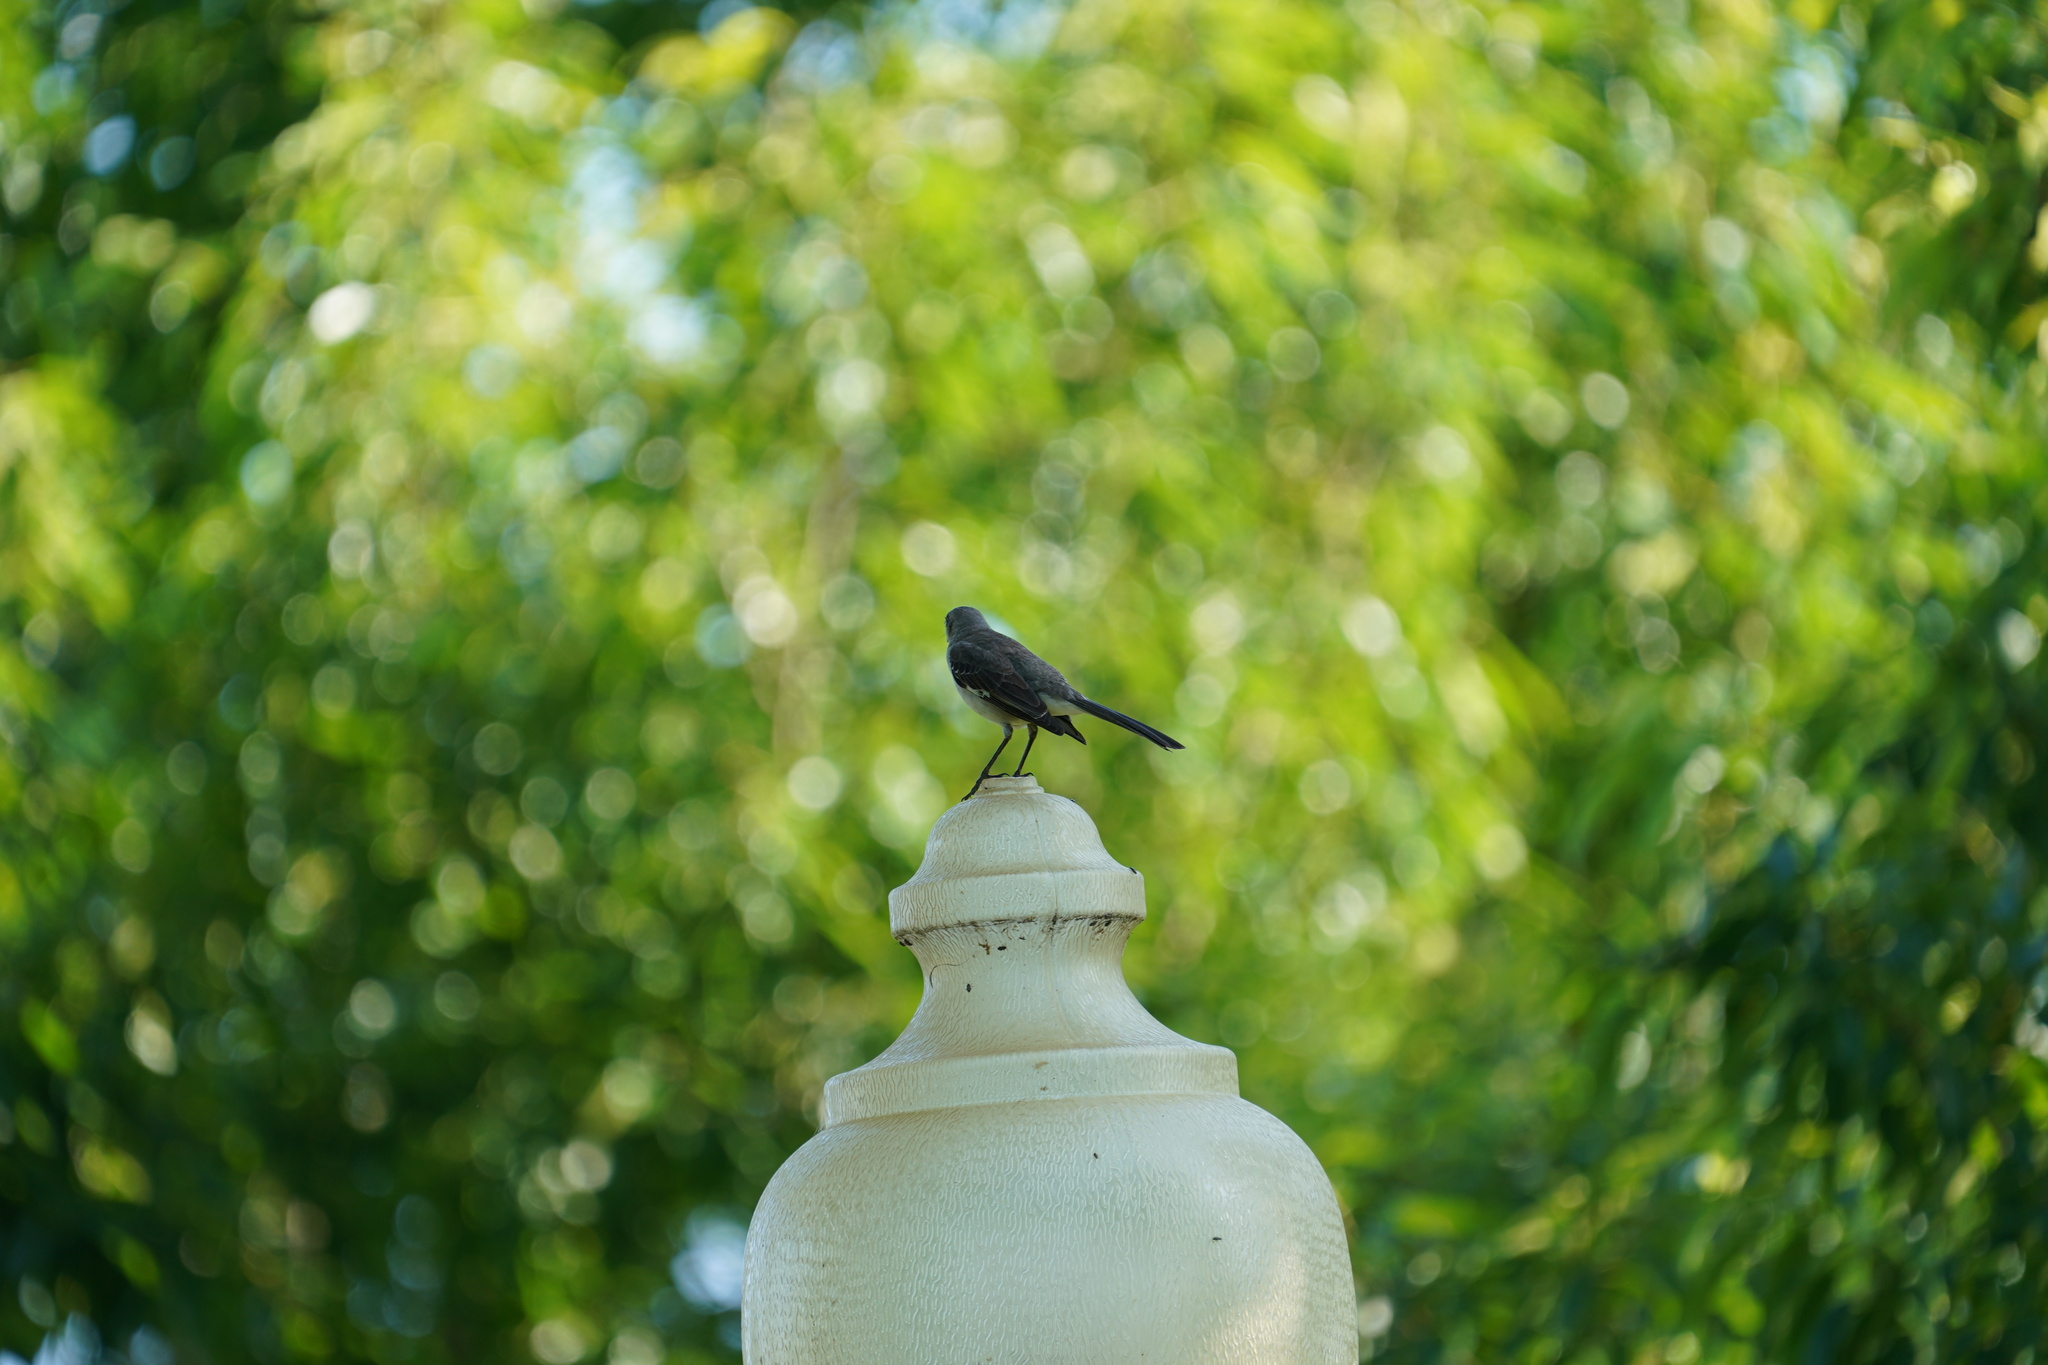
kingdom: Animalia
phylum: Chordata
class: Aves
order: Passeriformes
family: Mimidae
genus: Mimus
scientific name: Mimus polyglottos
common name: Northern mockingbird
